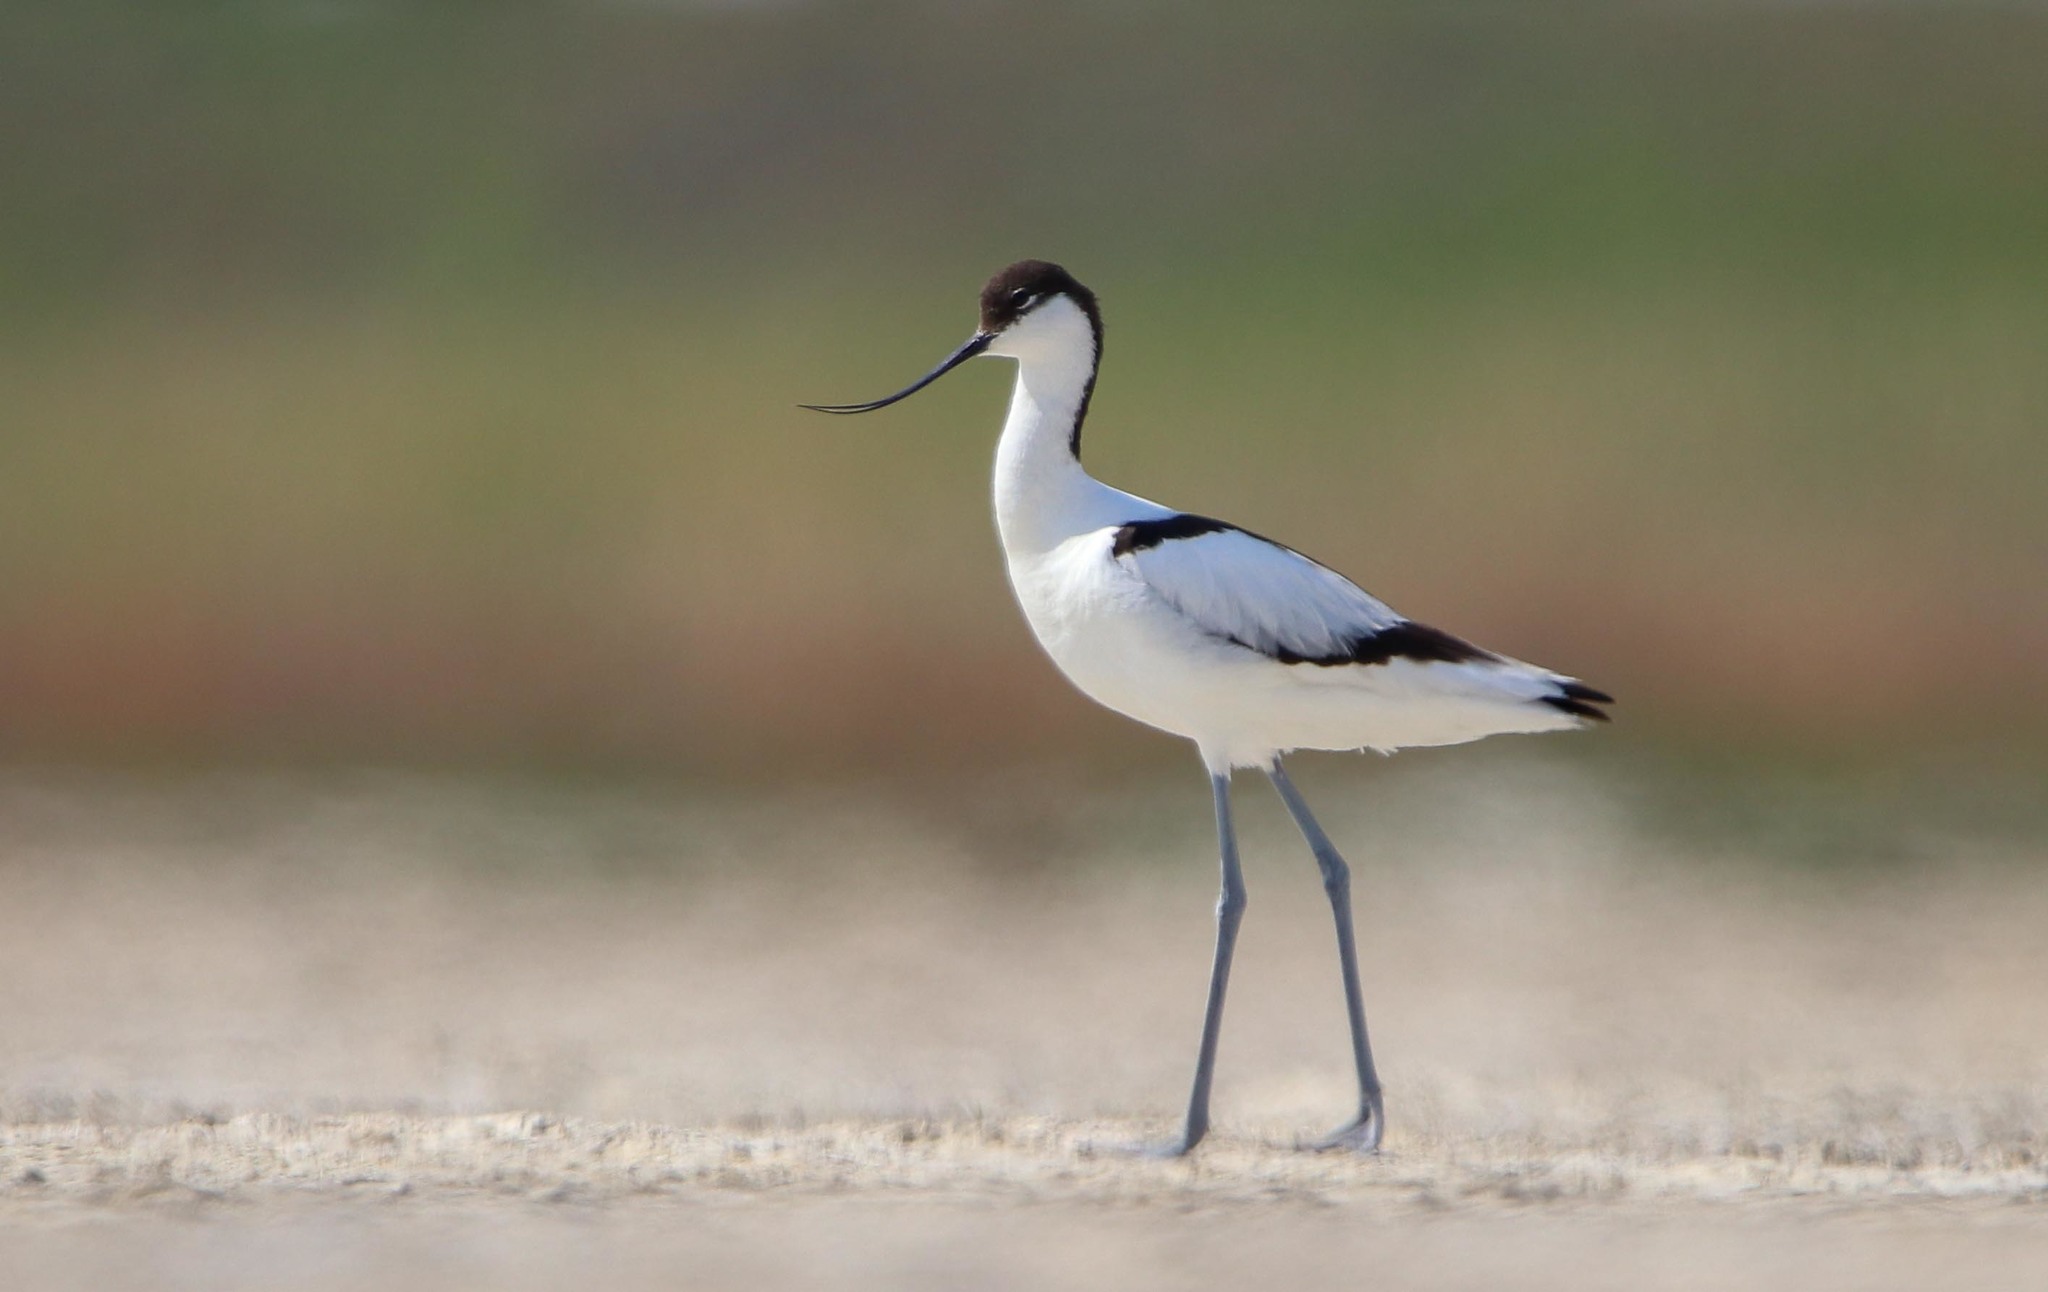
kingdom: Animalia
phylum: Chordata
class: Aves
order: Charadriiformes
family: Recurvirostridae
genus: Recurvirostra
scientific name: Recurvirostra avosetta
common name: Pied avocet
